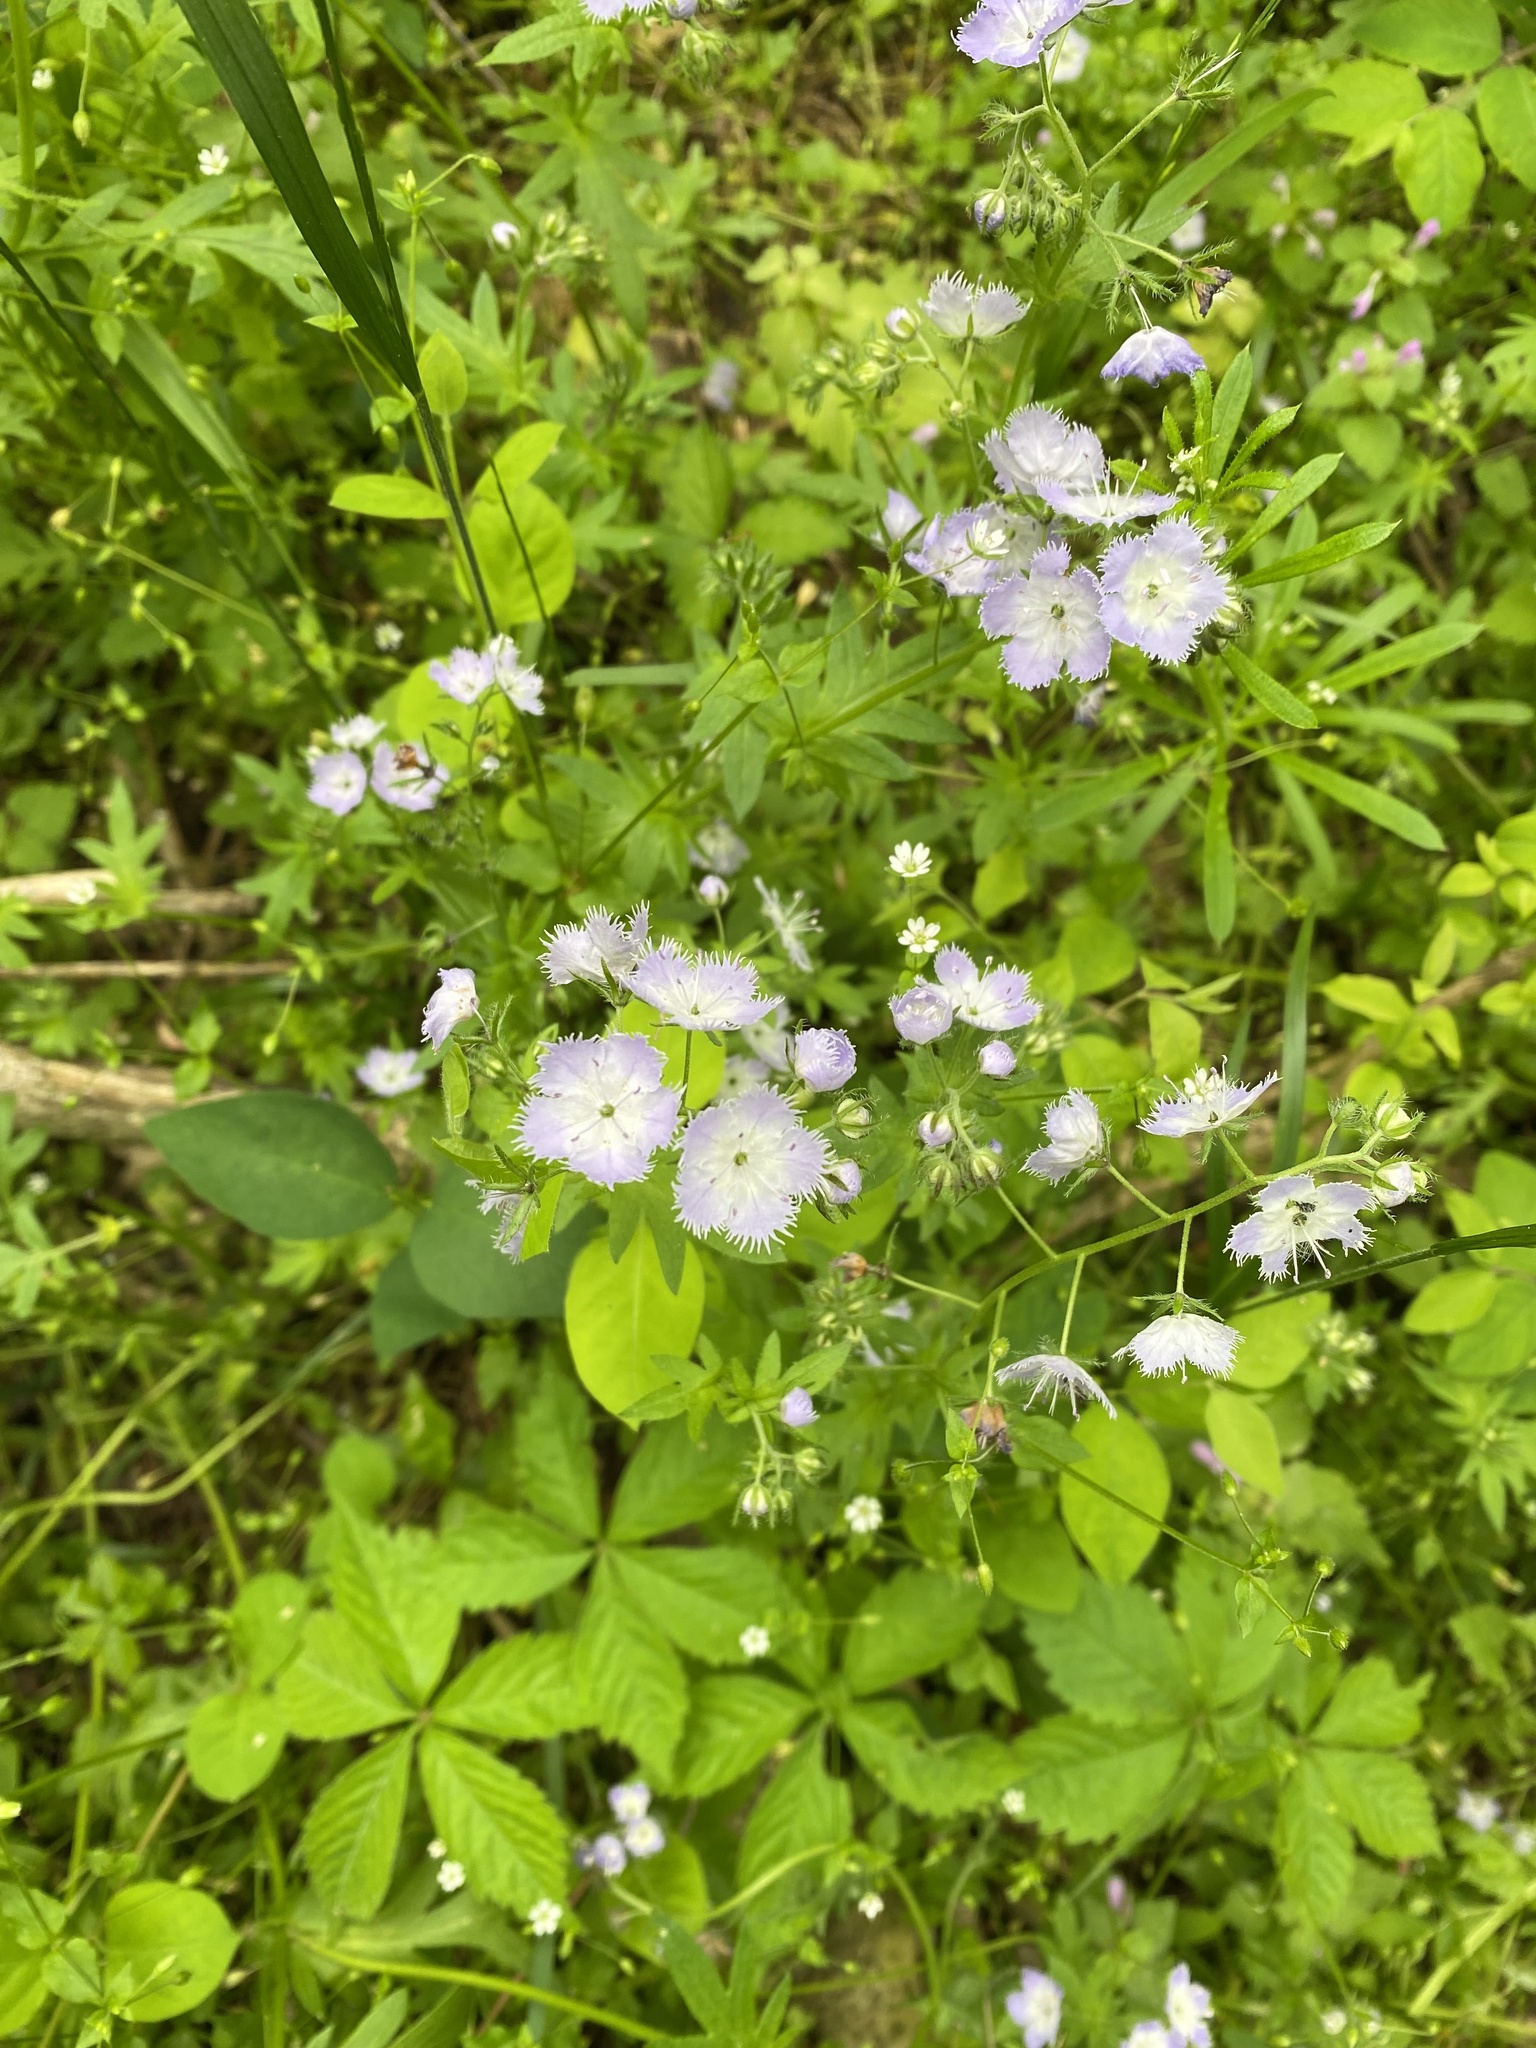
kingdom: Plantae
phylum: Tracheophyta
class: Magnoliopsida
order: Boraginales
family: Hydrophyllaceae
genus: Phacelia
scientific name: Phacelia purshii
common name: Miami-mist
